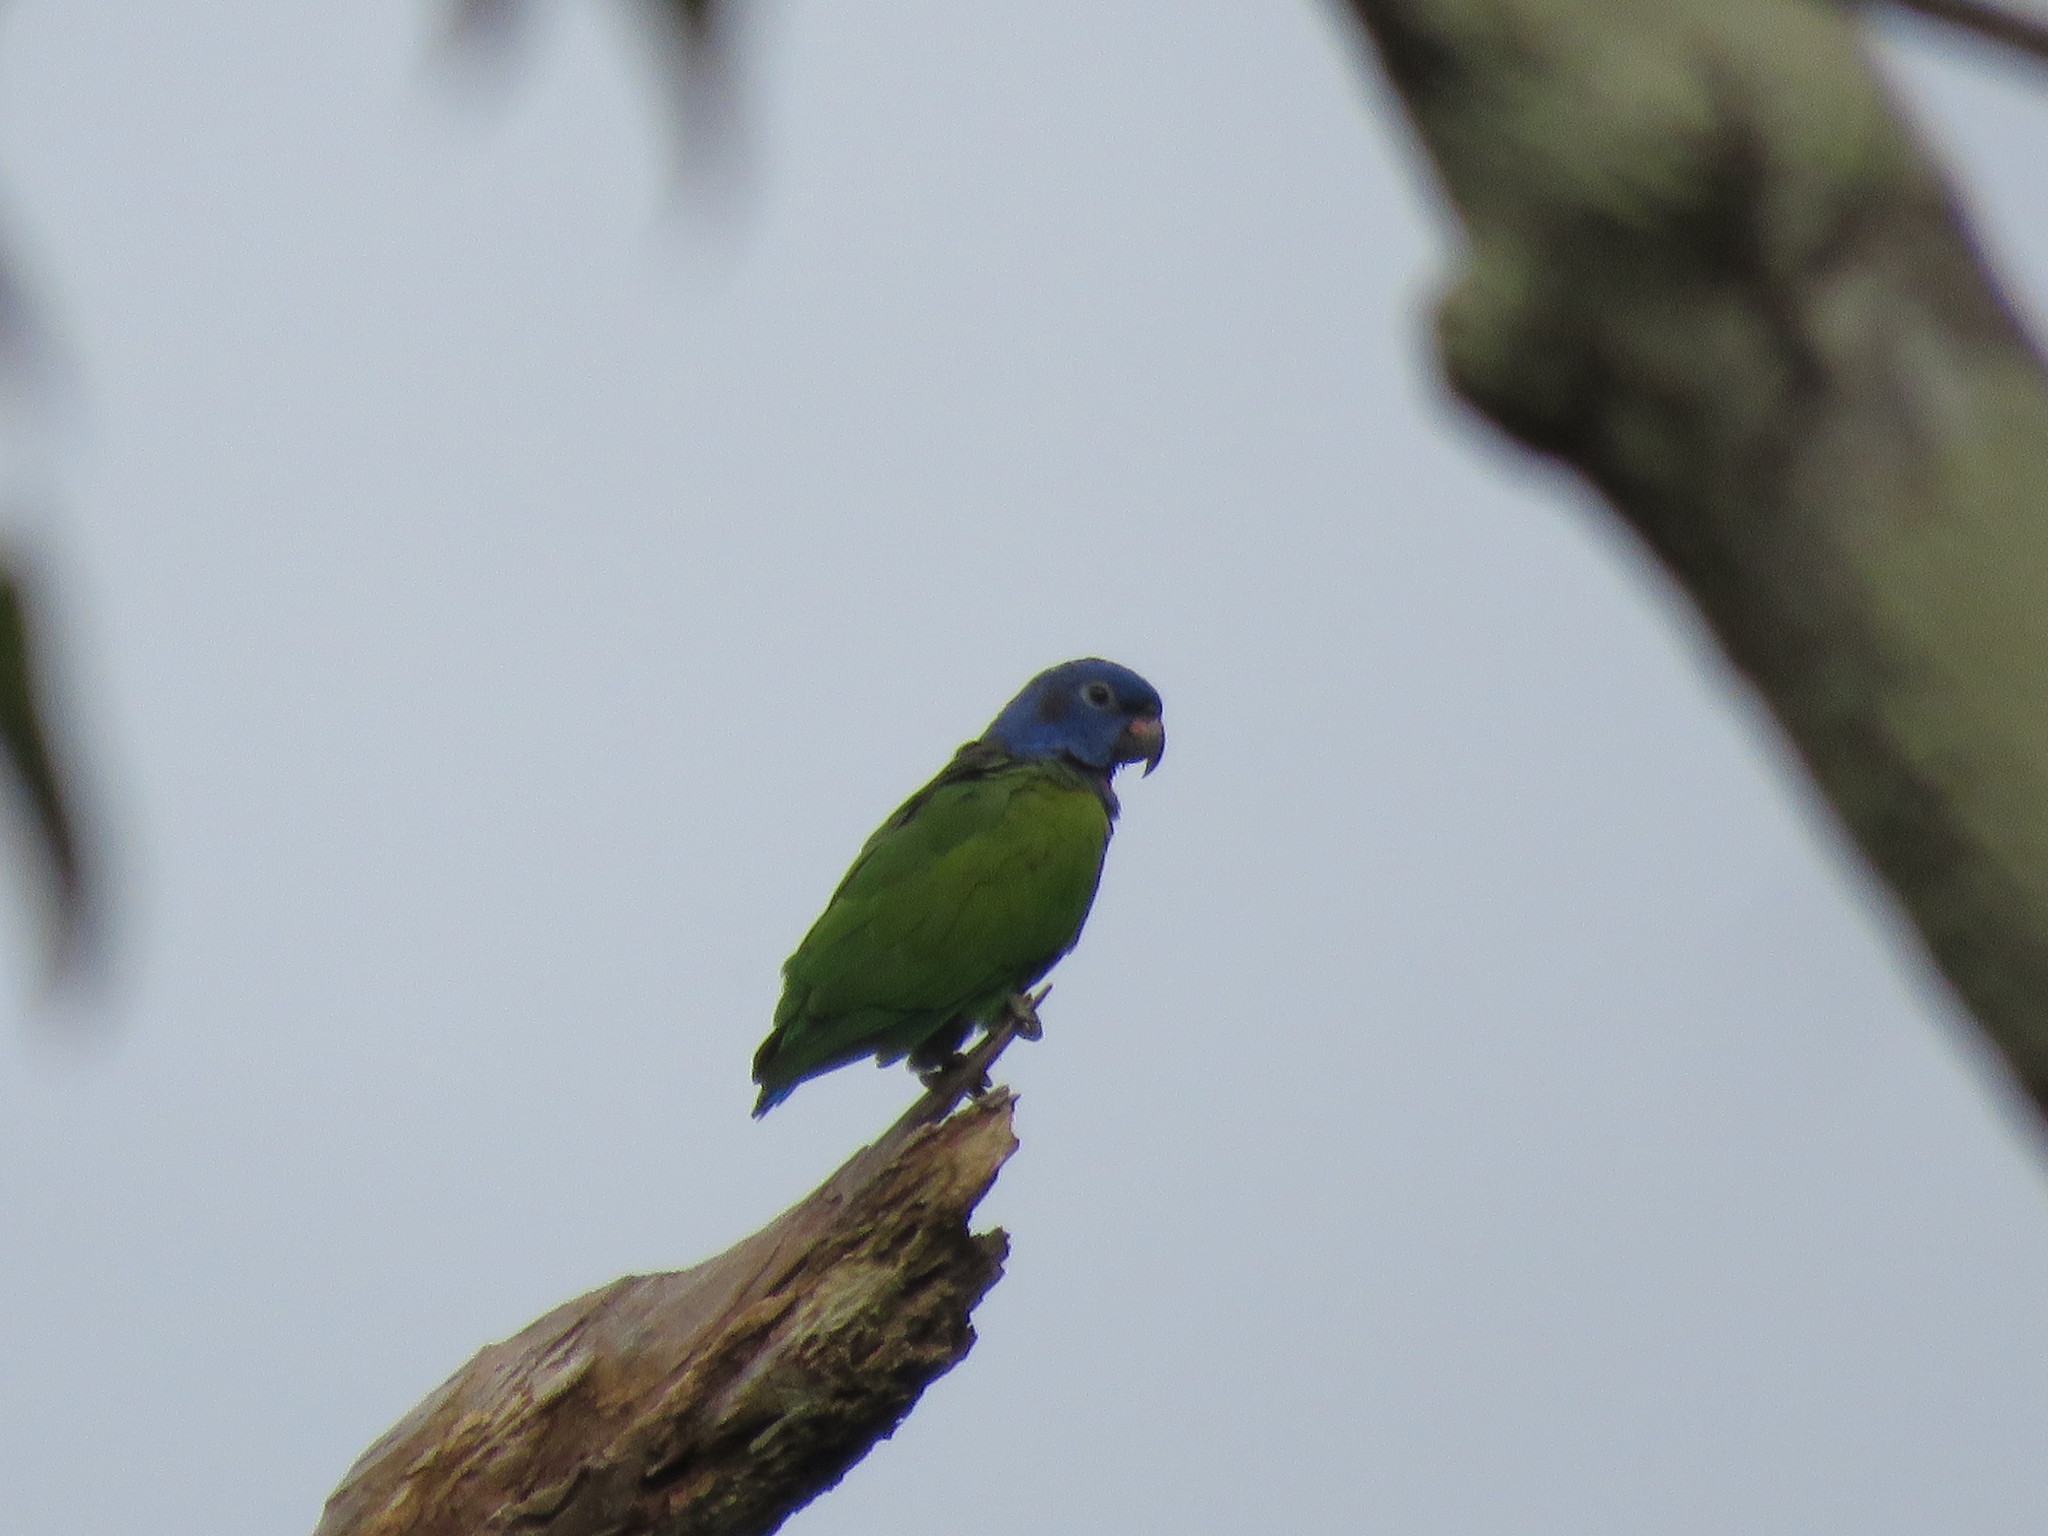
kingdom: Animalia
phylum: Chordata
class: Aves
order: Psittaciformes
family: Psittacidae
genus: Pionus
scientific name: Pionus menstruus
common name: Blue-headed parrot
